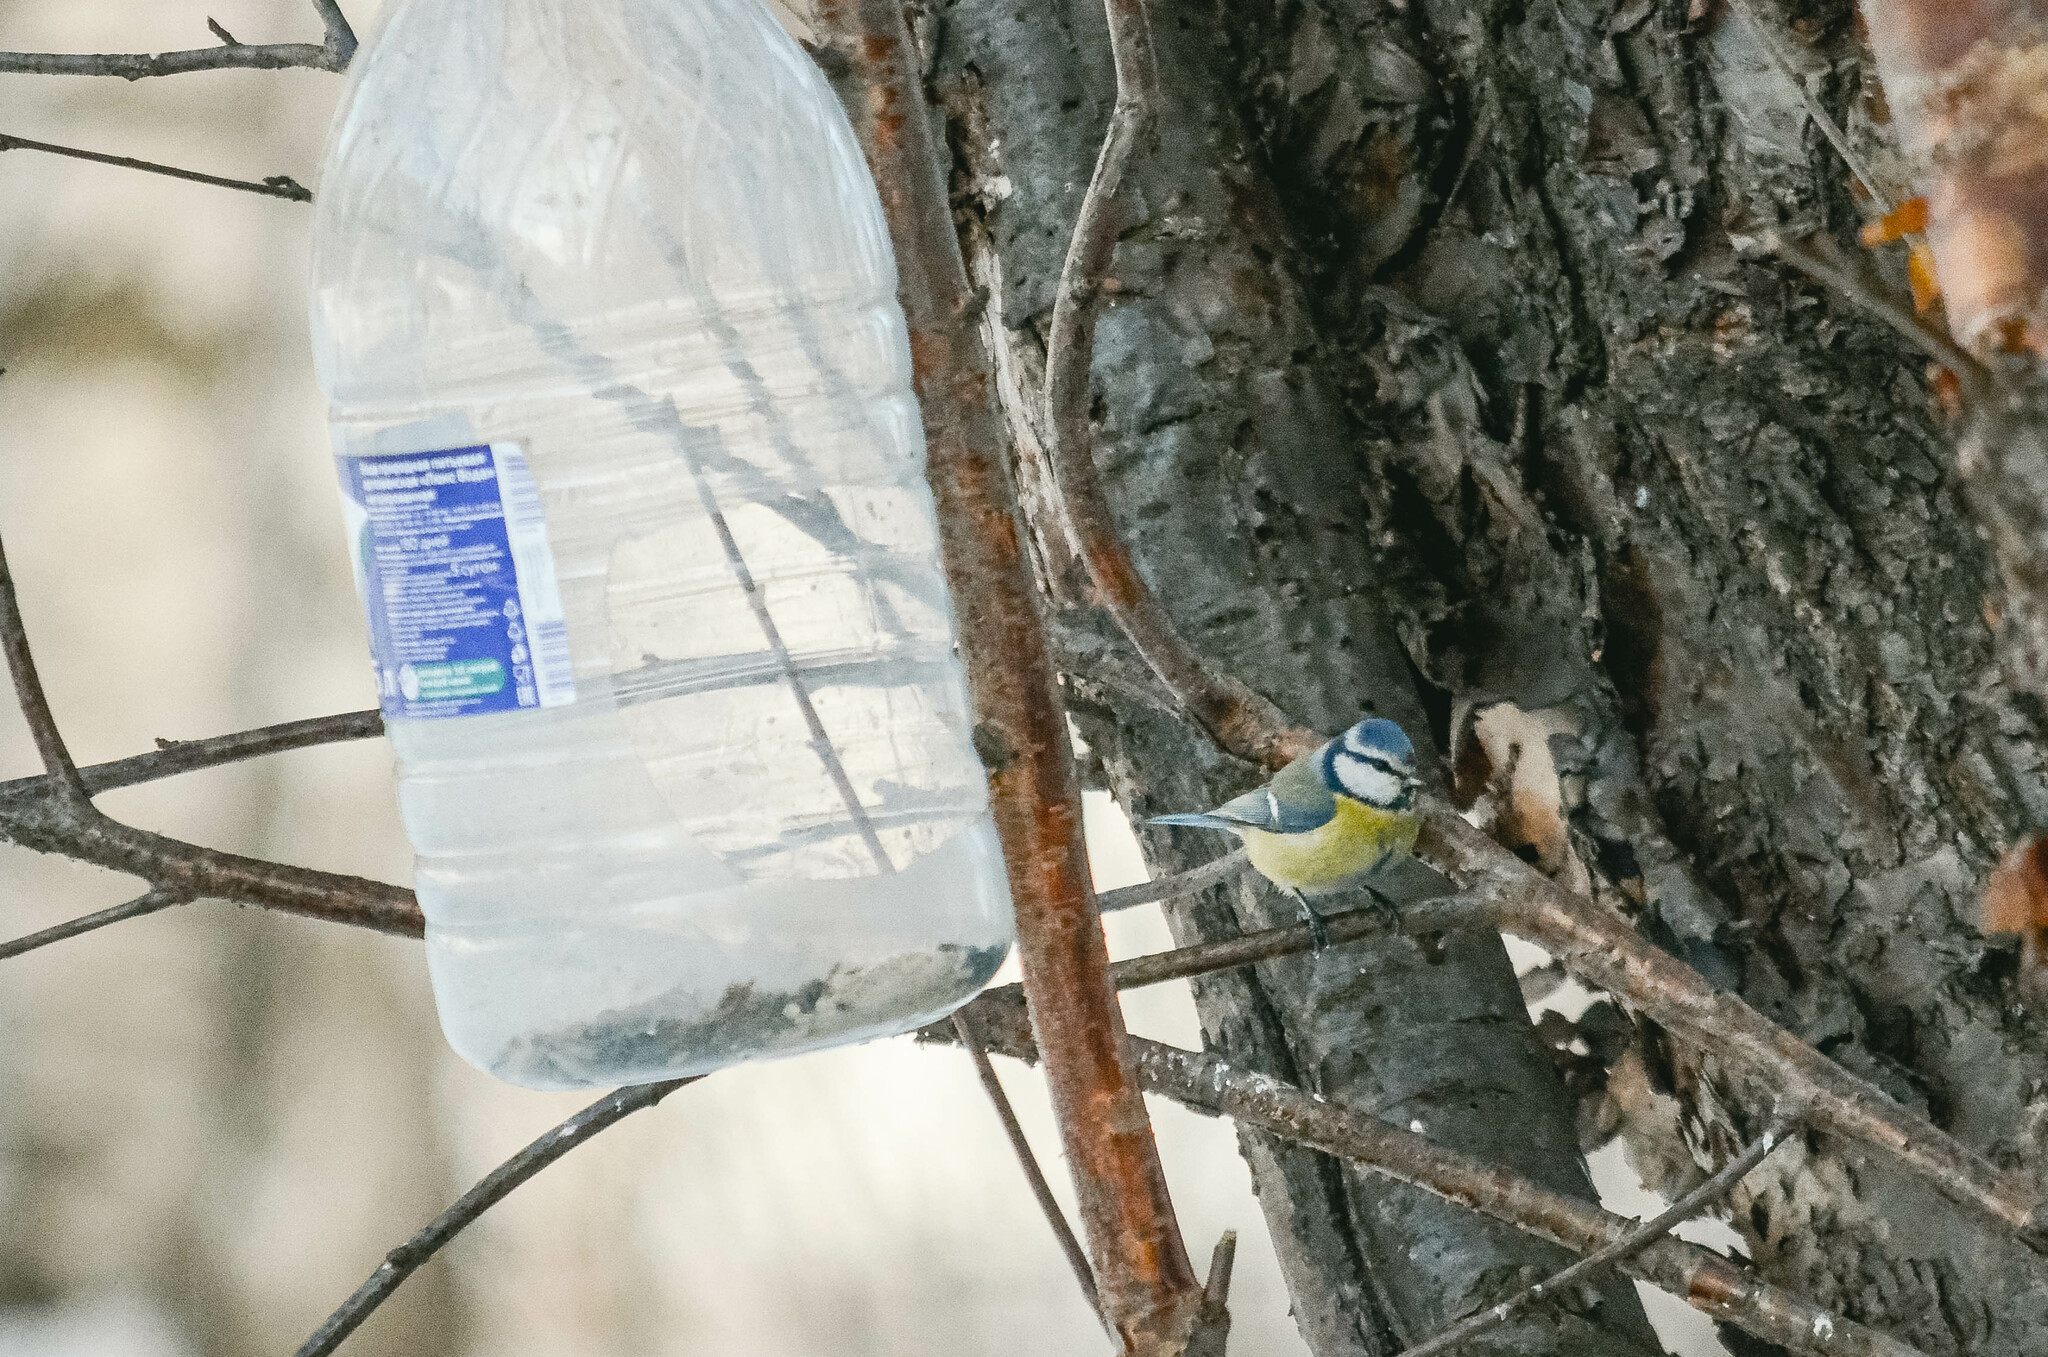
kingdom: Animalia
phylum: Chordata
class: Aves
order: Passeriformes
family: Paridae
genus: Cyanistes
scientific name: Cyanistes caeruleus
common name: Eurasian blue tit
